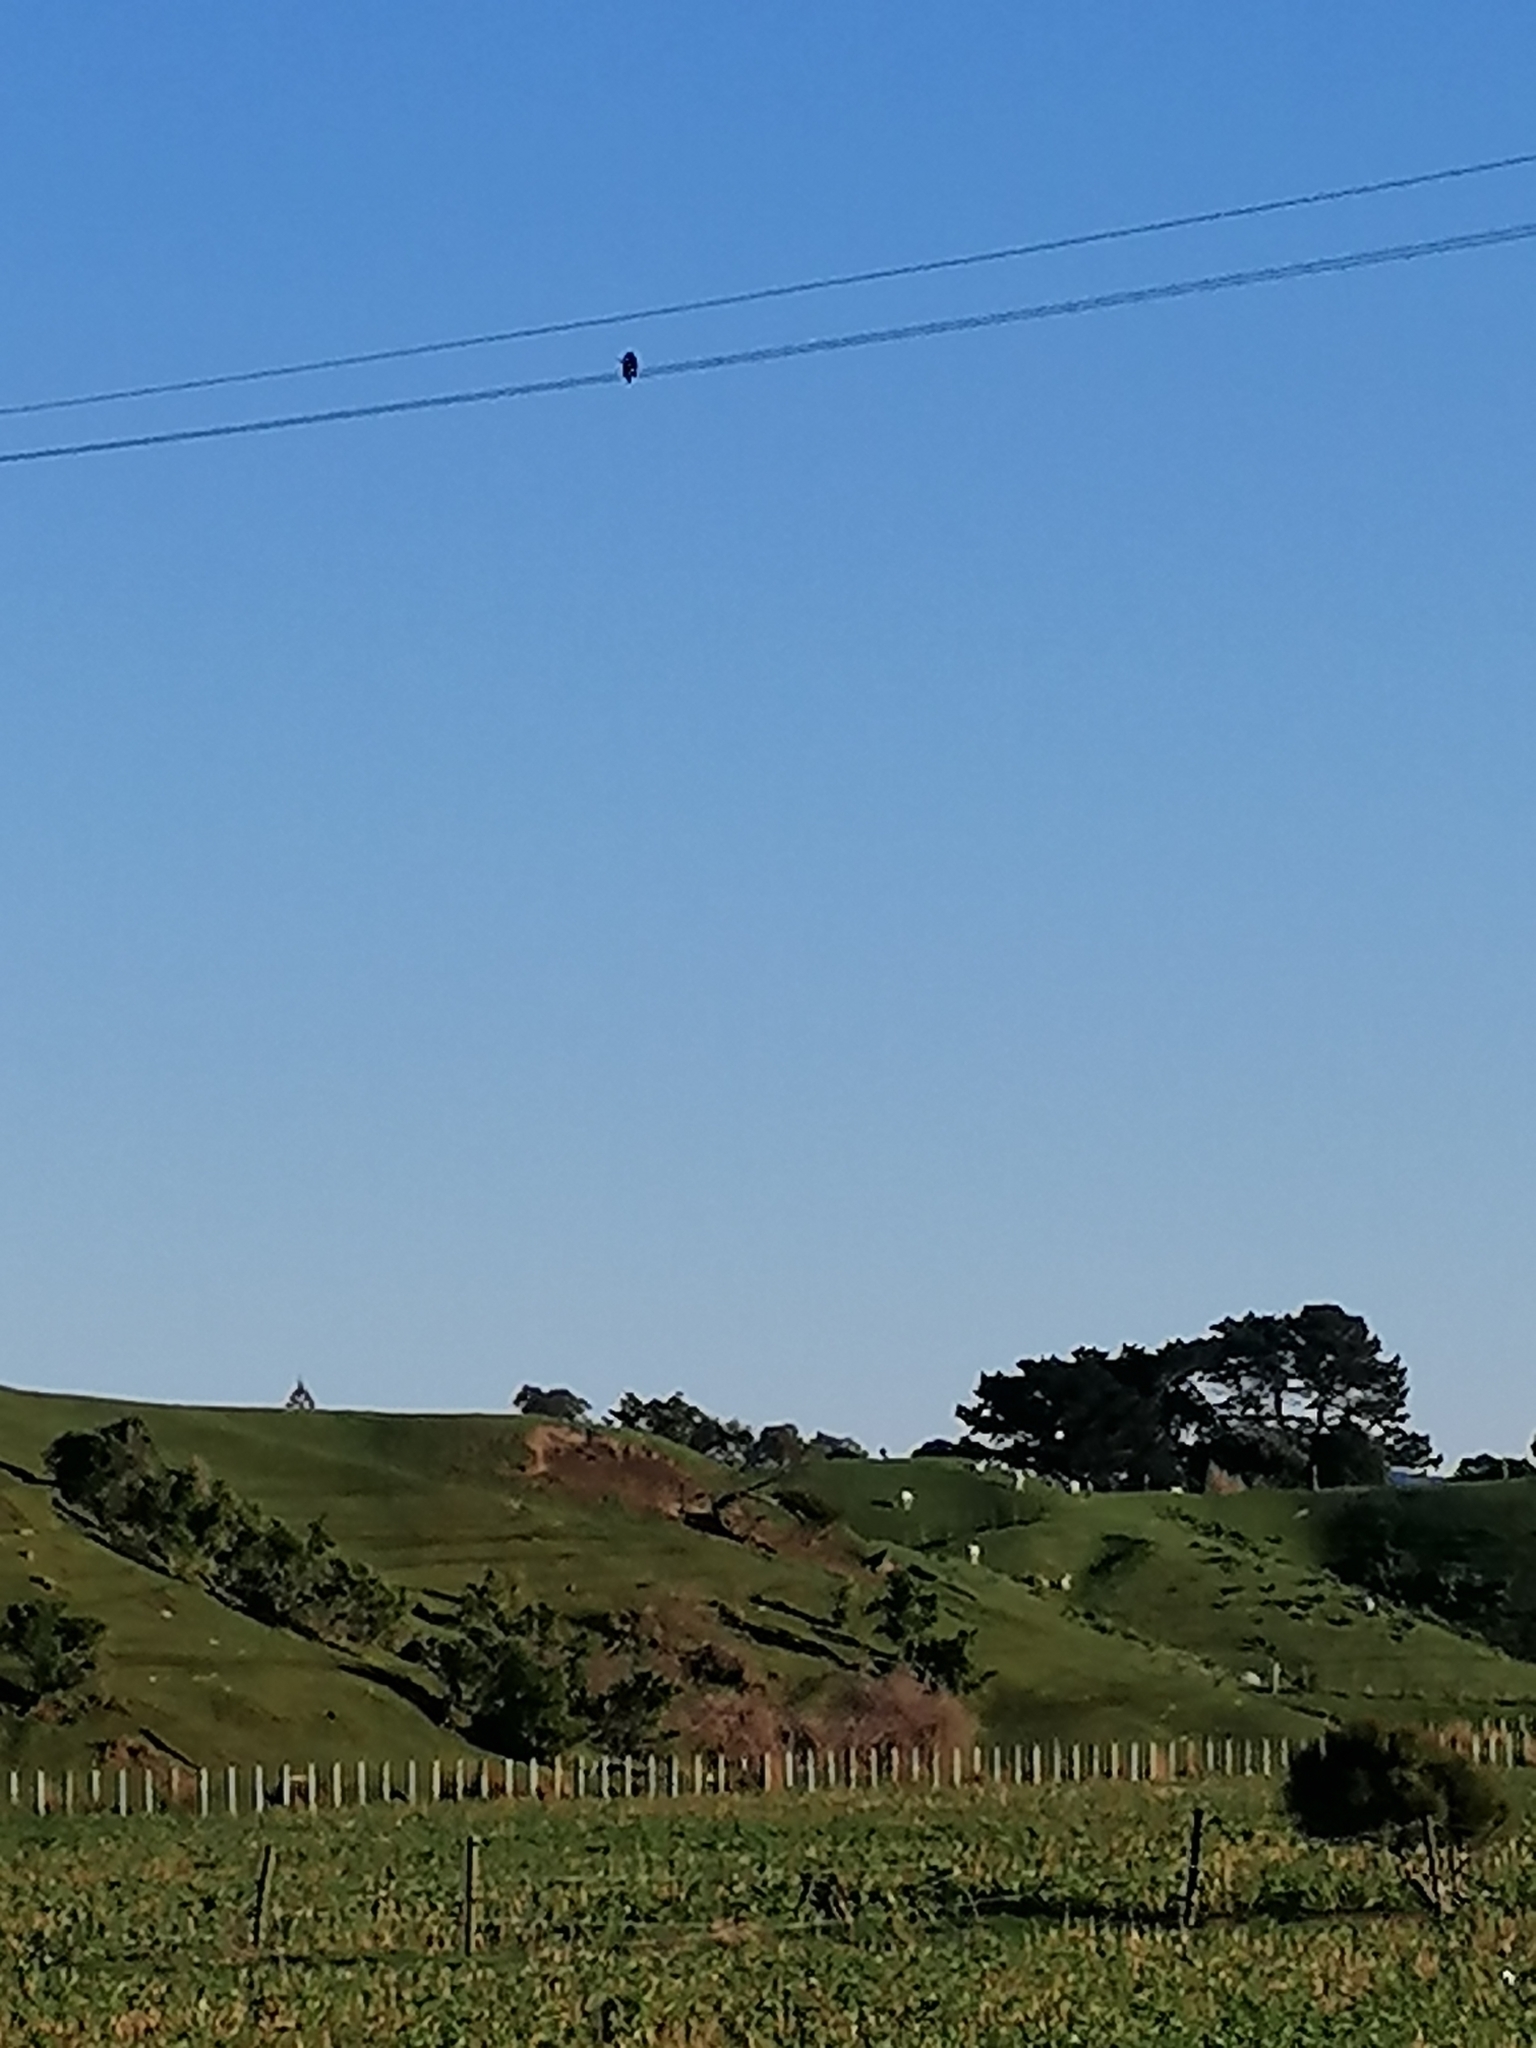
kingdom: Animalia
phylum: Chordata
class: Aves
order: Coraciiformes
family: Alcedinidae
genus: Todiramphus
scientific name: Todiramphus sanctus
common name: Sacred kingfisher
